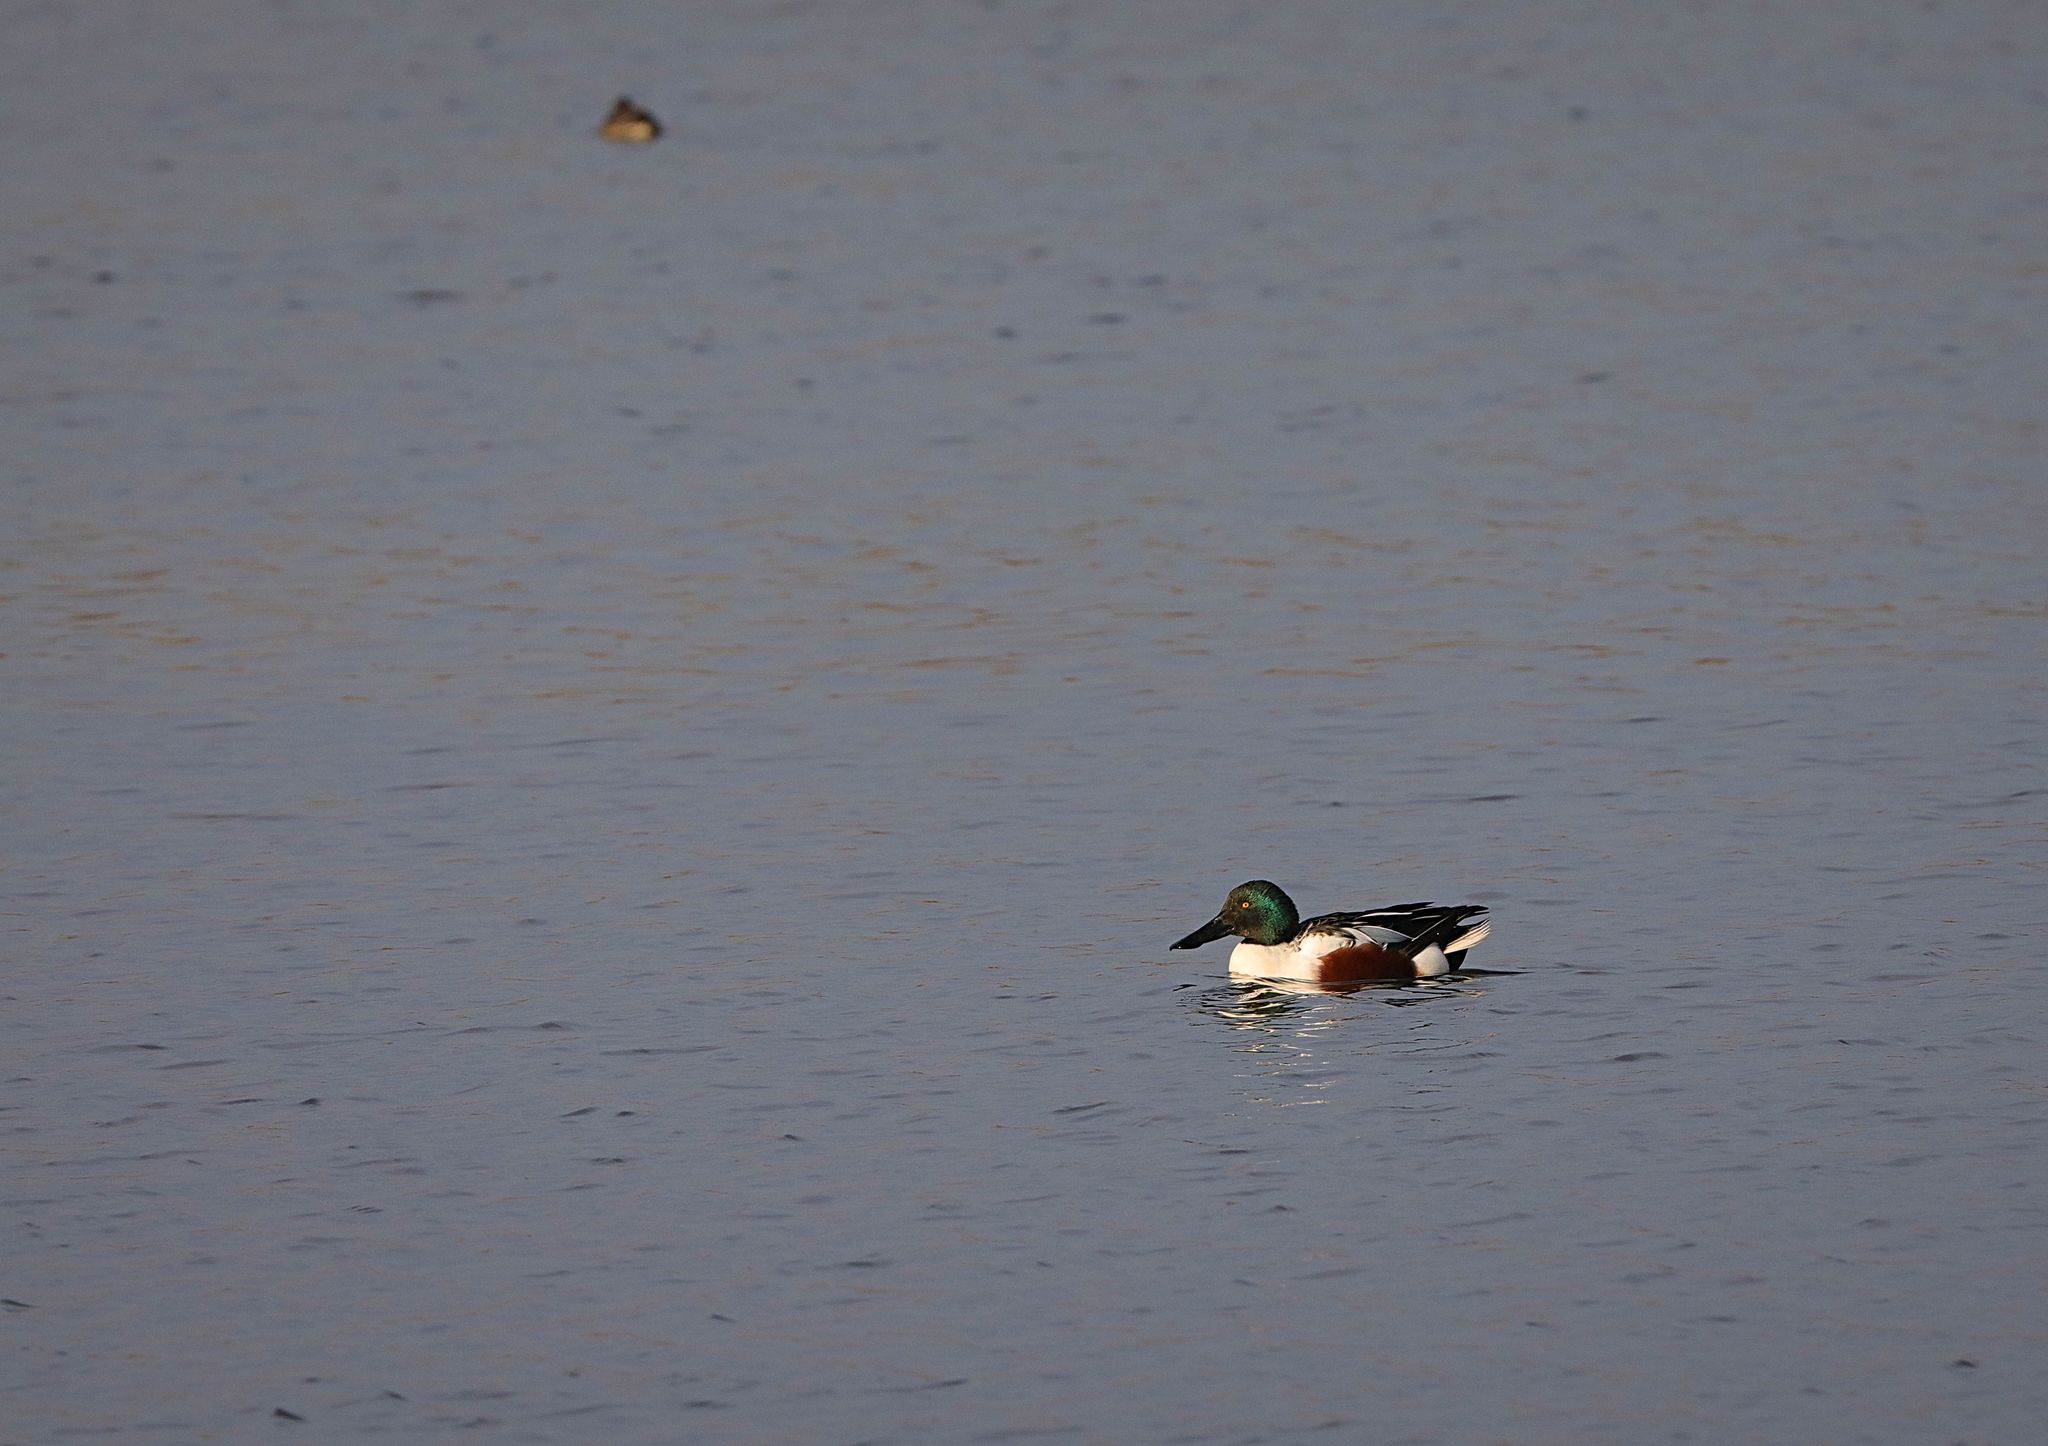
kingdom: Animalia
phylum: Chordata
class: Aves
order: Anseriformes
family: Anatidae
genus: Spatula
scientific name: Spatula clypeata
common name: Northern shoveler
